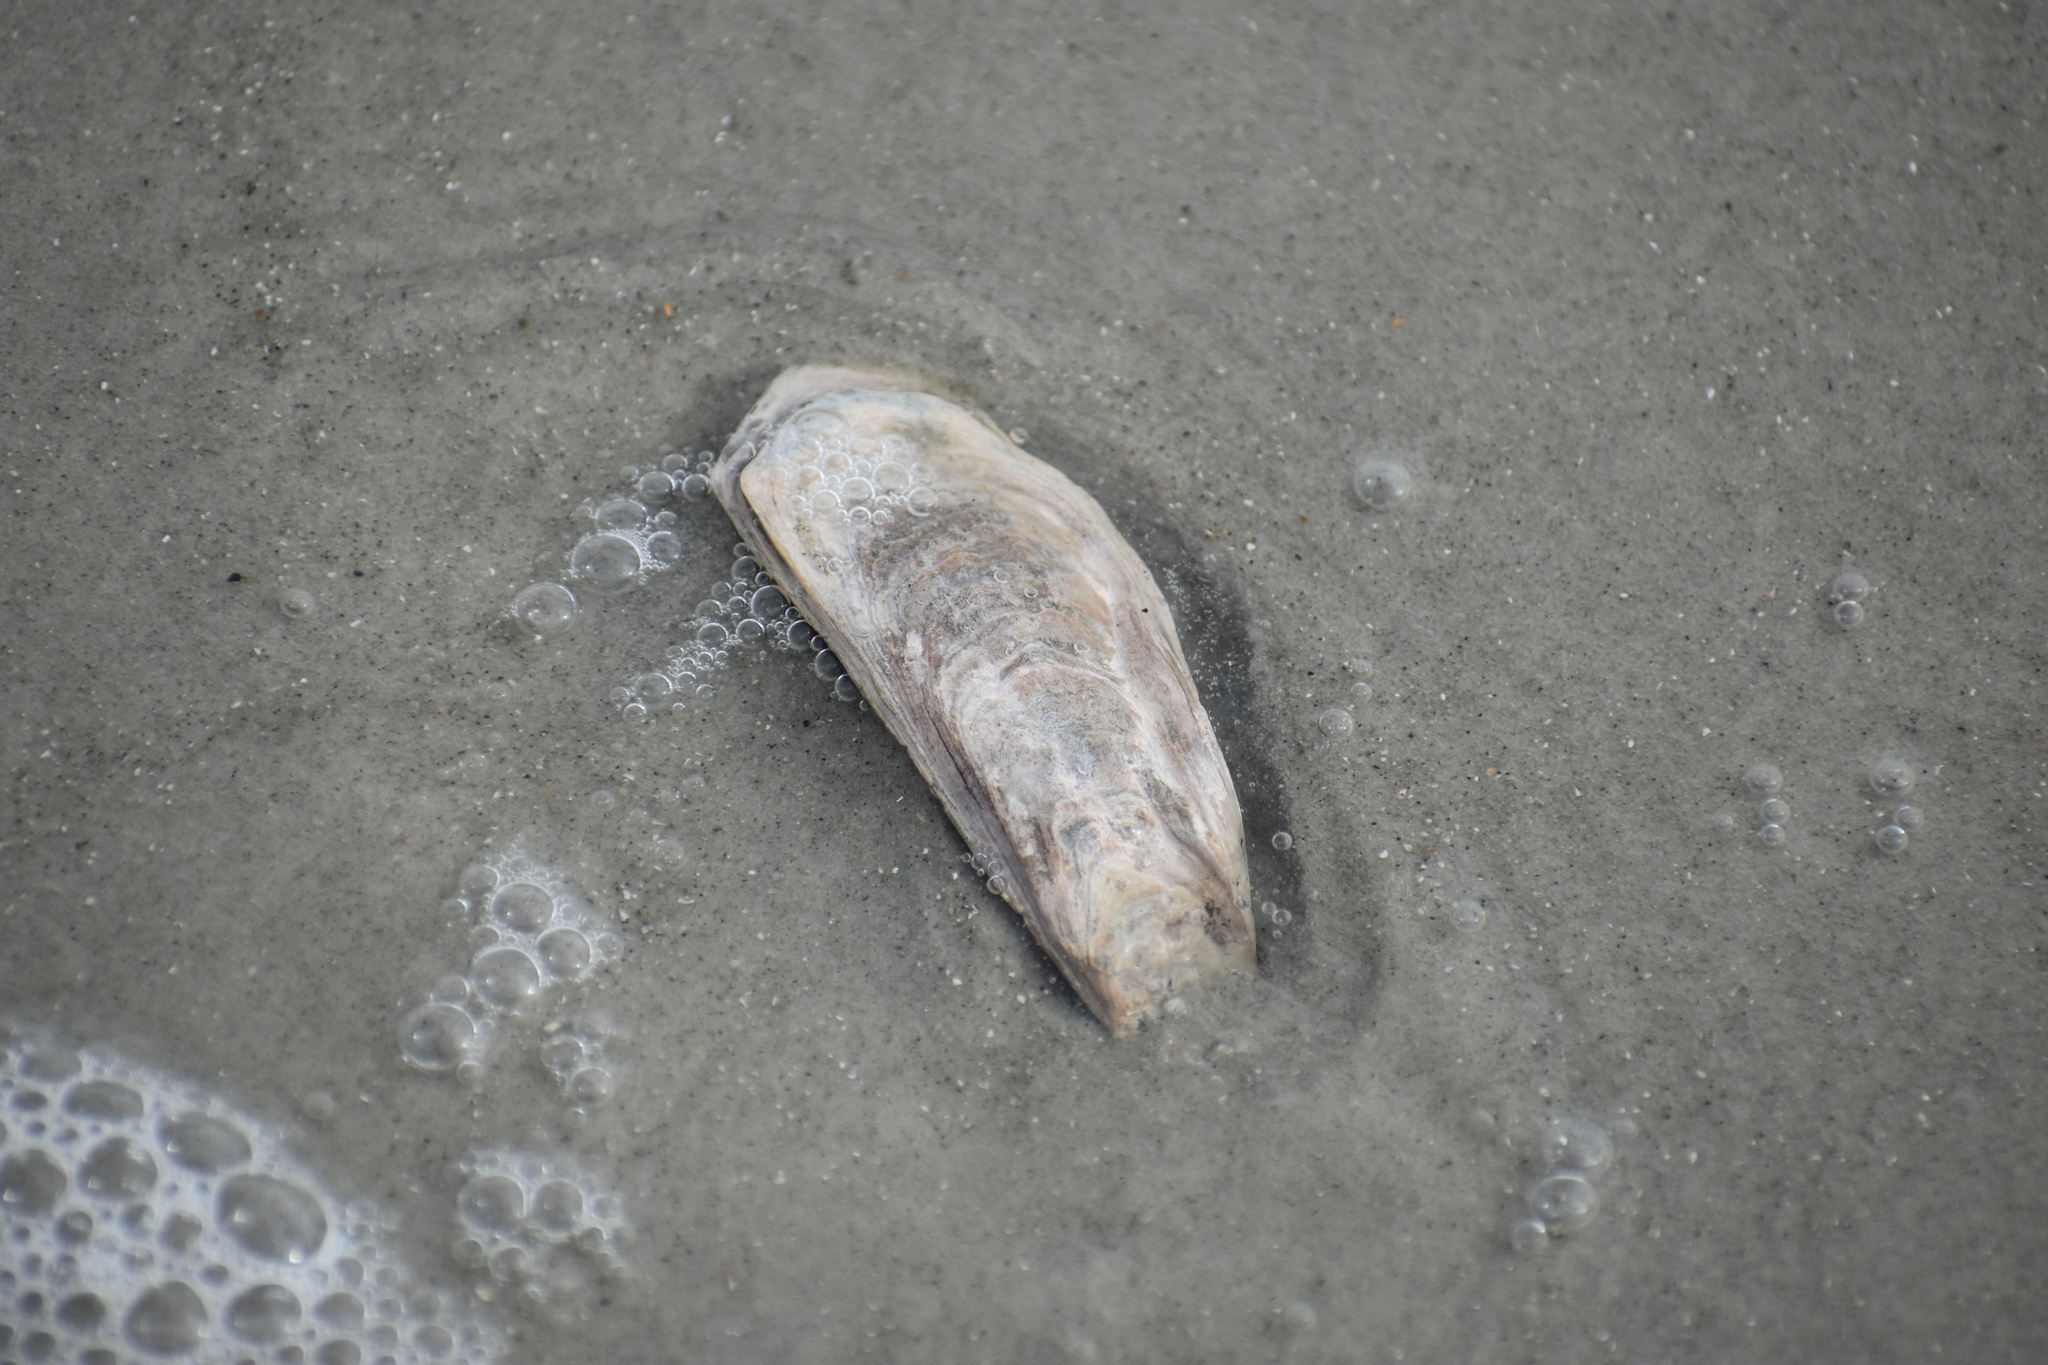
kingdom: Animalia
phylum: Mollusca
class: Bivalvia
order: Ostreida
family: Ostreidae
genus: Crassostrea
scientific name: Crassostrea virginica
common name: American oyster
